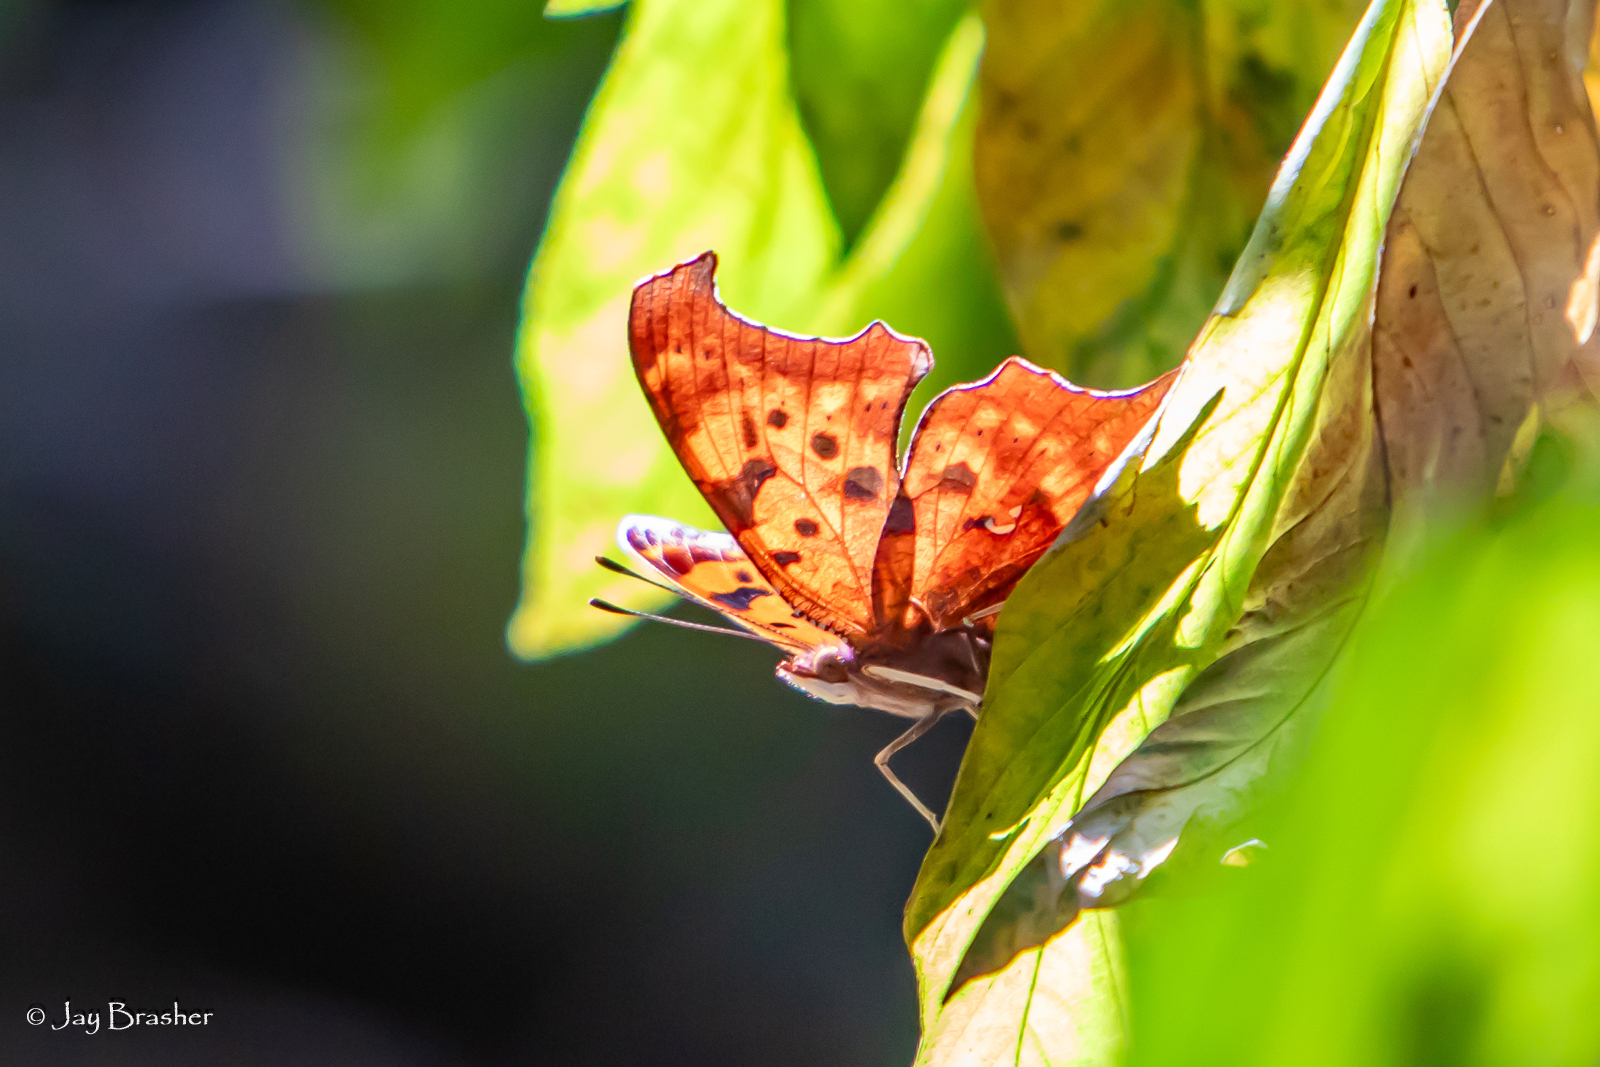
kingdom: Animalia
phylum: Arthropoda
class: Insecta
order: Lepidoptera
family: Nymphalidae
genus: Polygonia
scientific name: Polygonia interrogationis
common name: Question mark
